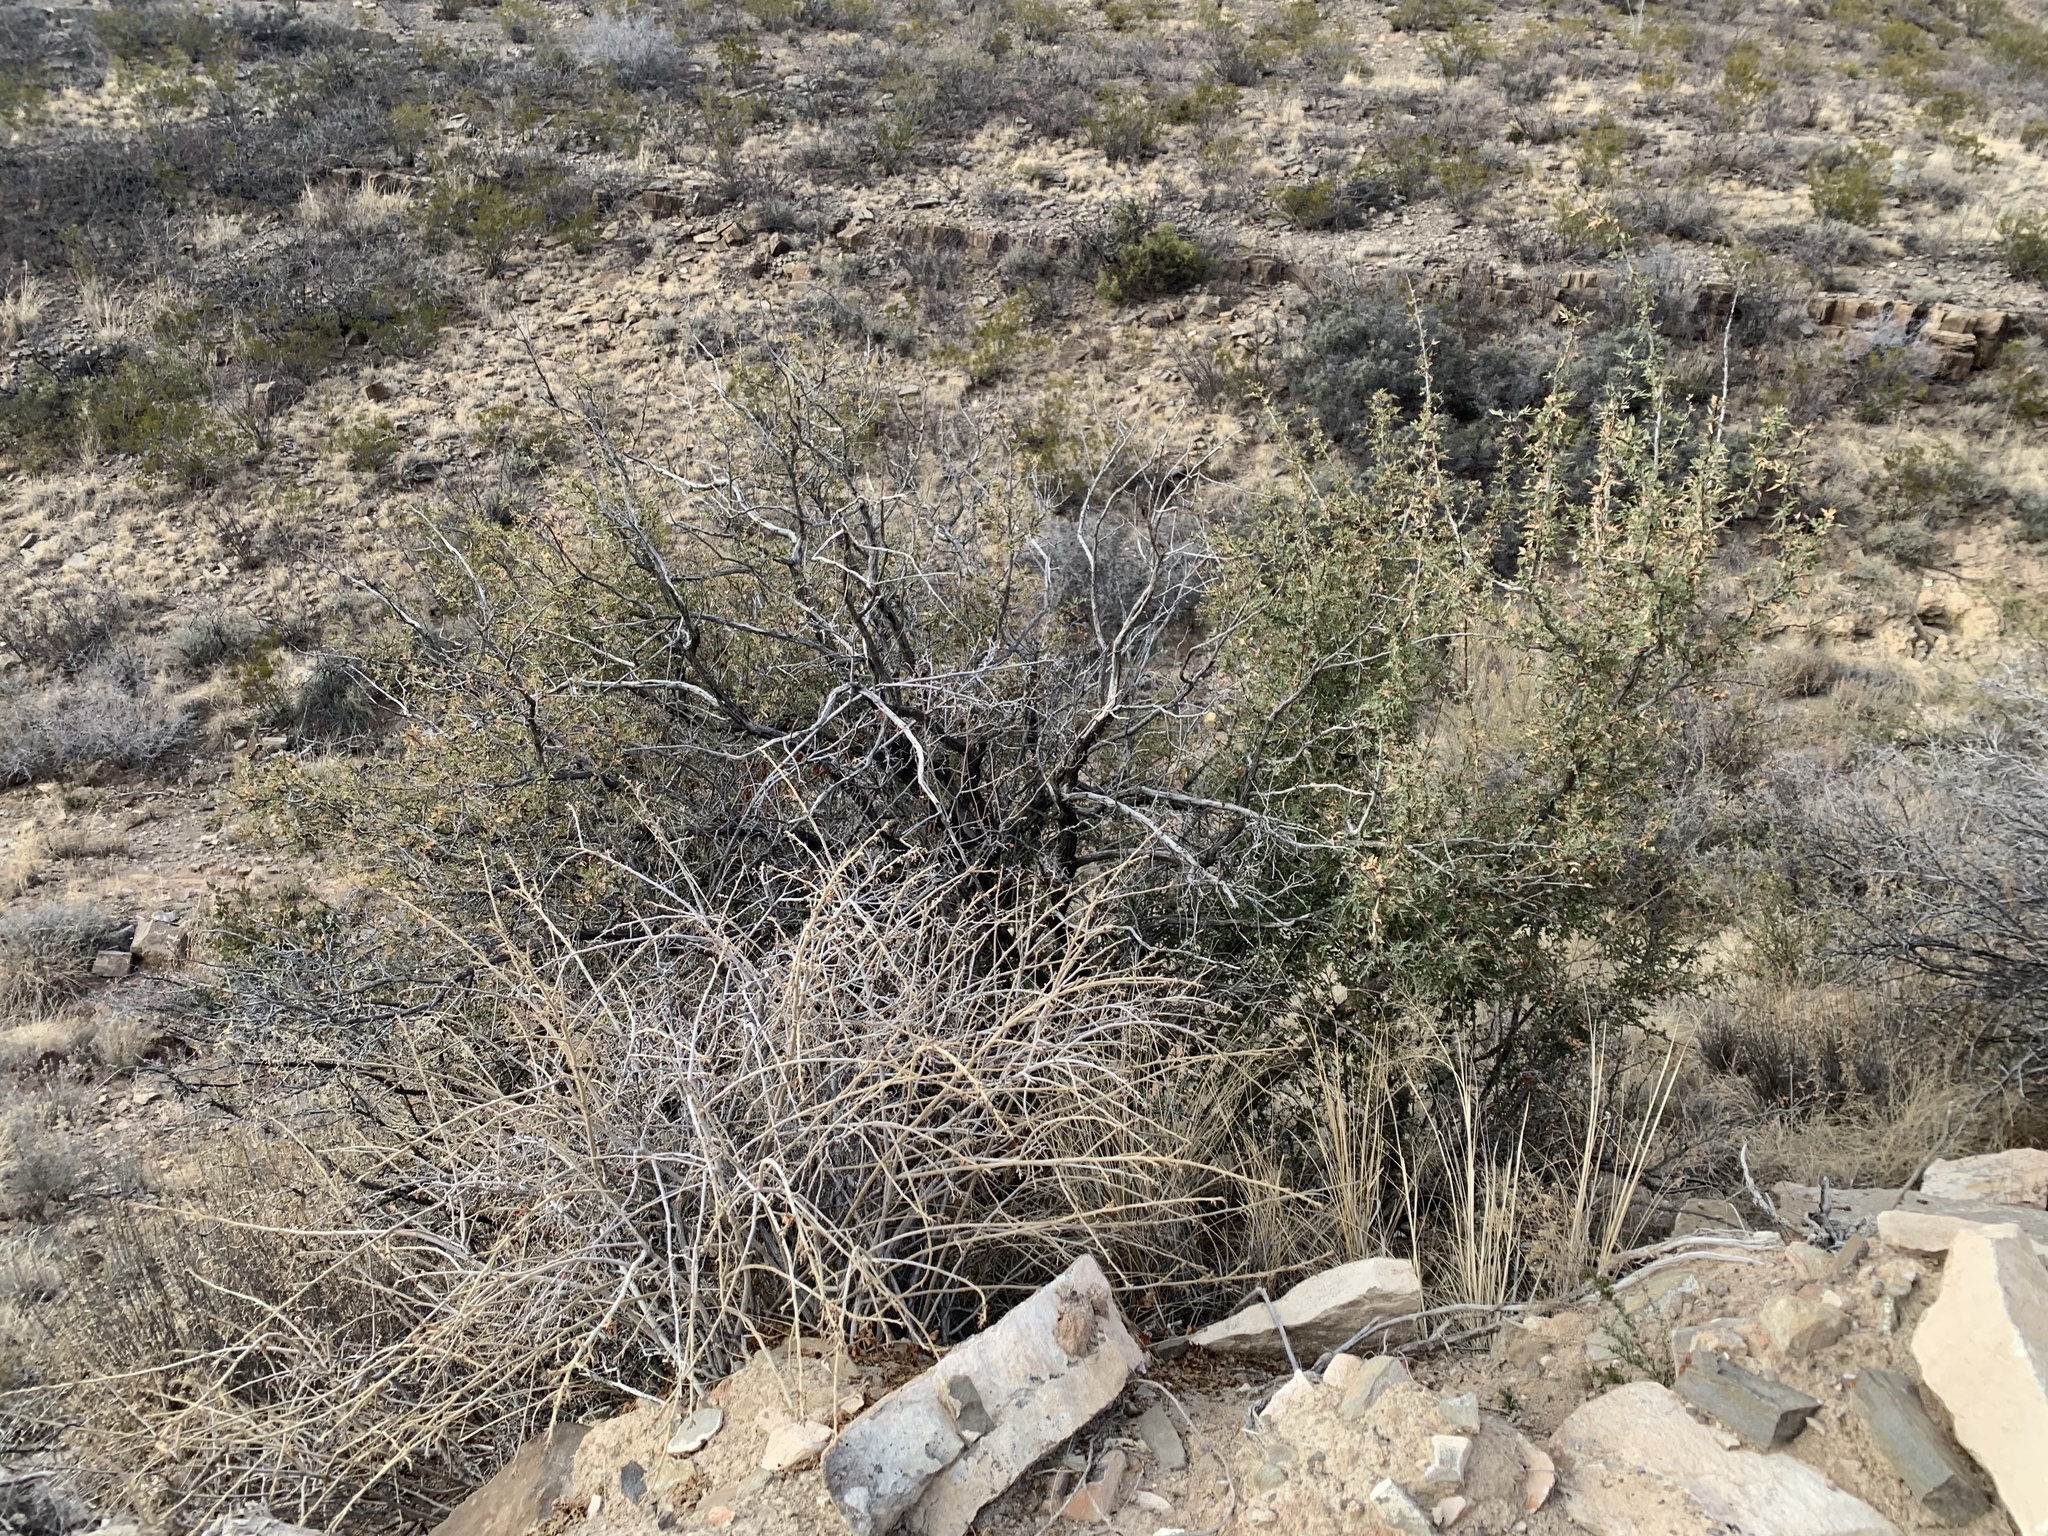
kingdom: Plantae
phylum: Tracheophyta
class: Magnoliopsida
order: Ranunculales
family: Berberidaceae
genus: Alloberberis
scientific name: Alloberberis haematocarpa
